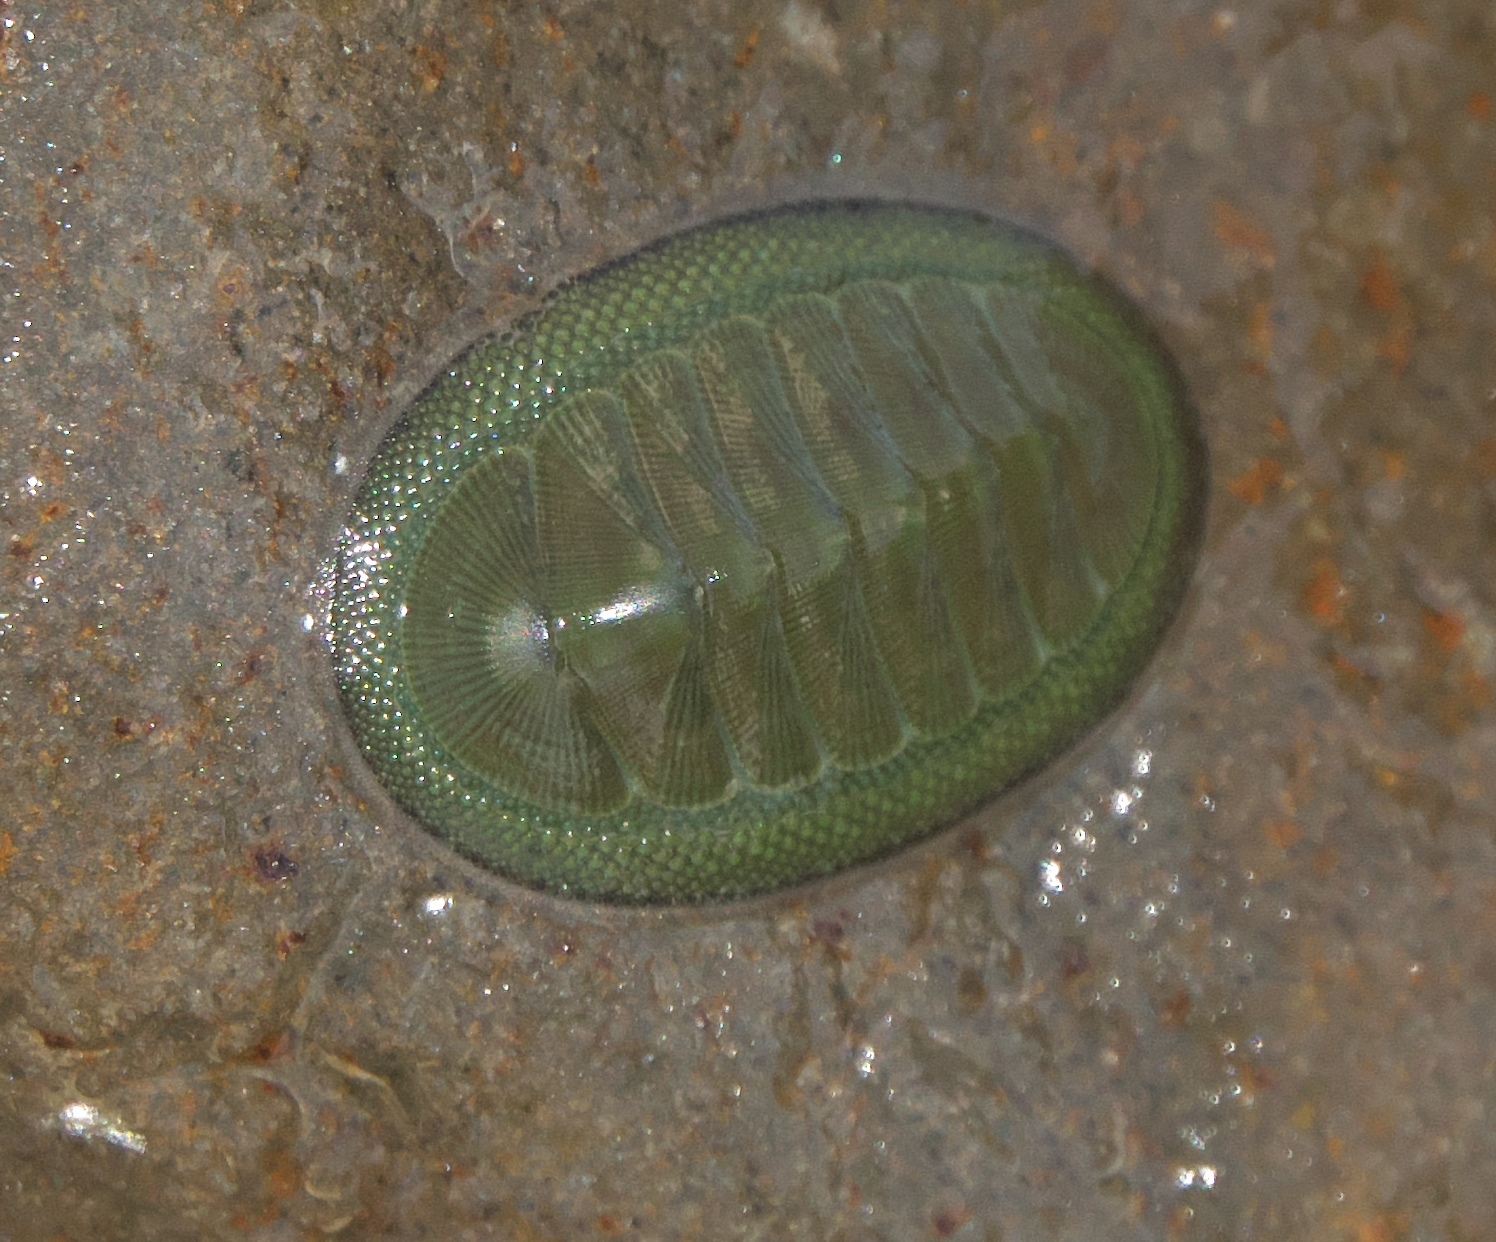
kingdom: Animalia
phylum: Mollusca
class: Polyplacophora
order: Chitonida
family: Chitonidae
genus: Chiton
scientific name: Chiton glaucus
